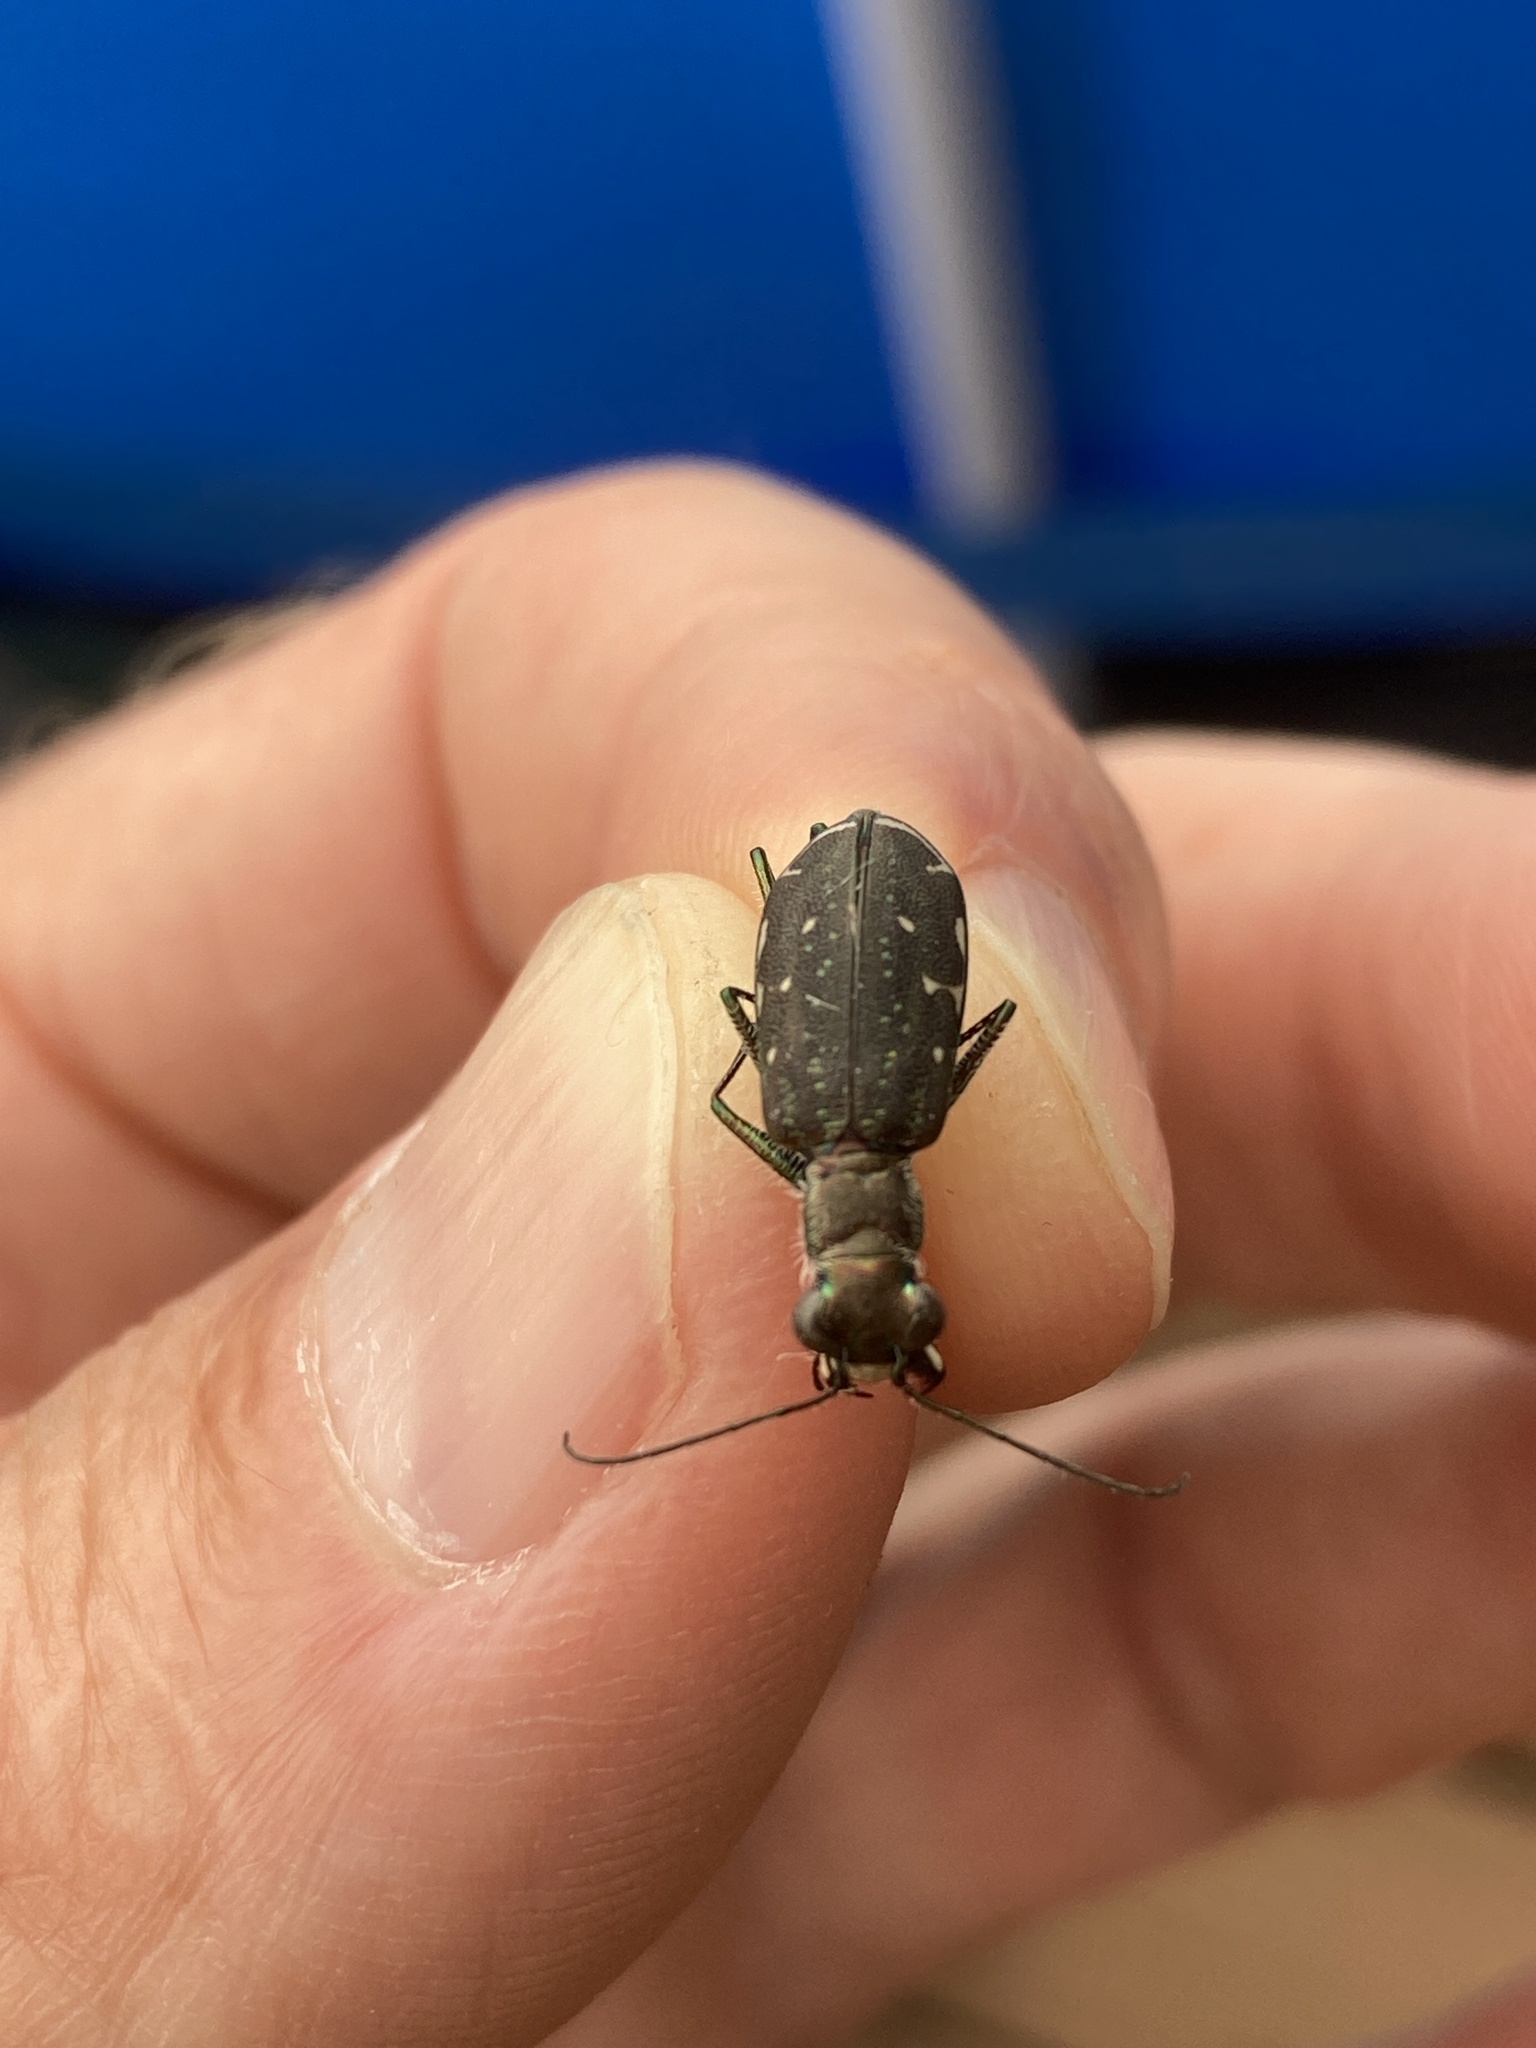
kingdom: Animalia
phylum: Arthropoda
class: Insecta
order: Coleoptera
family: Carabidae
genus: Cicindela
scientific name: Cicindela punctulata
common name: Punctured tiger beetle
